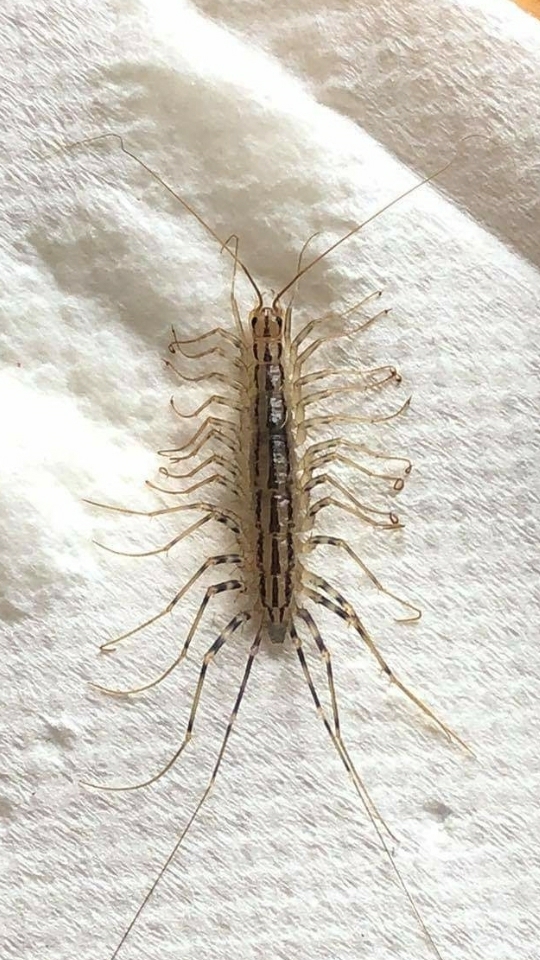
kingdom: Animalia
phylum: Arthropoda
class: Chilopoda
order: Scutigeromorpha
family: Scutigeridae
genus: Scutigera
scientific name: Scutigera coleoptrata
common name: House centipede
